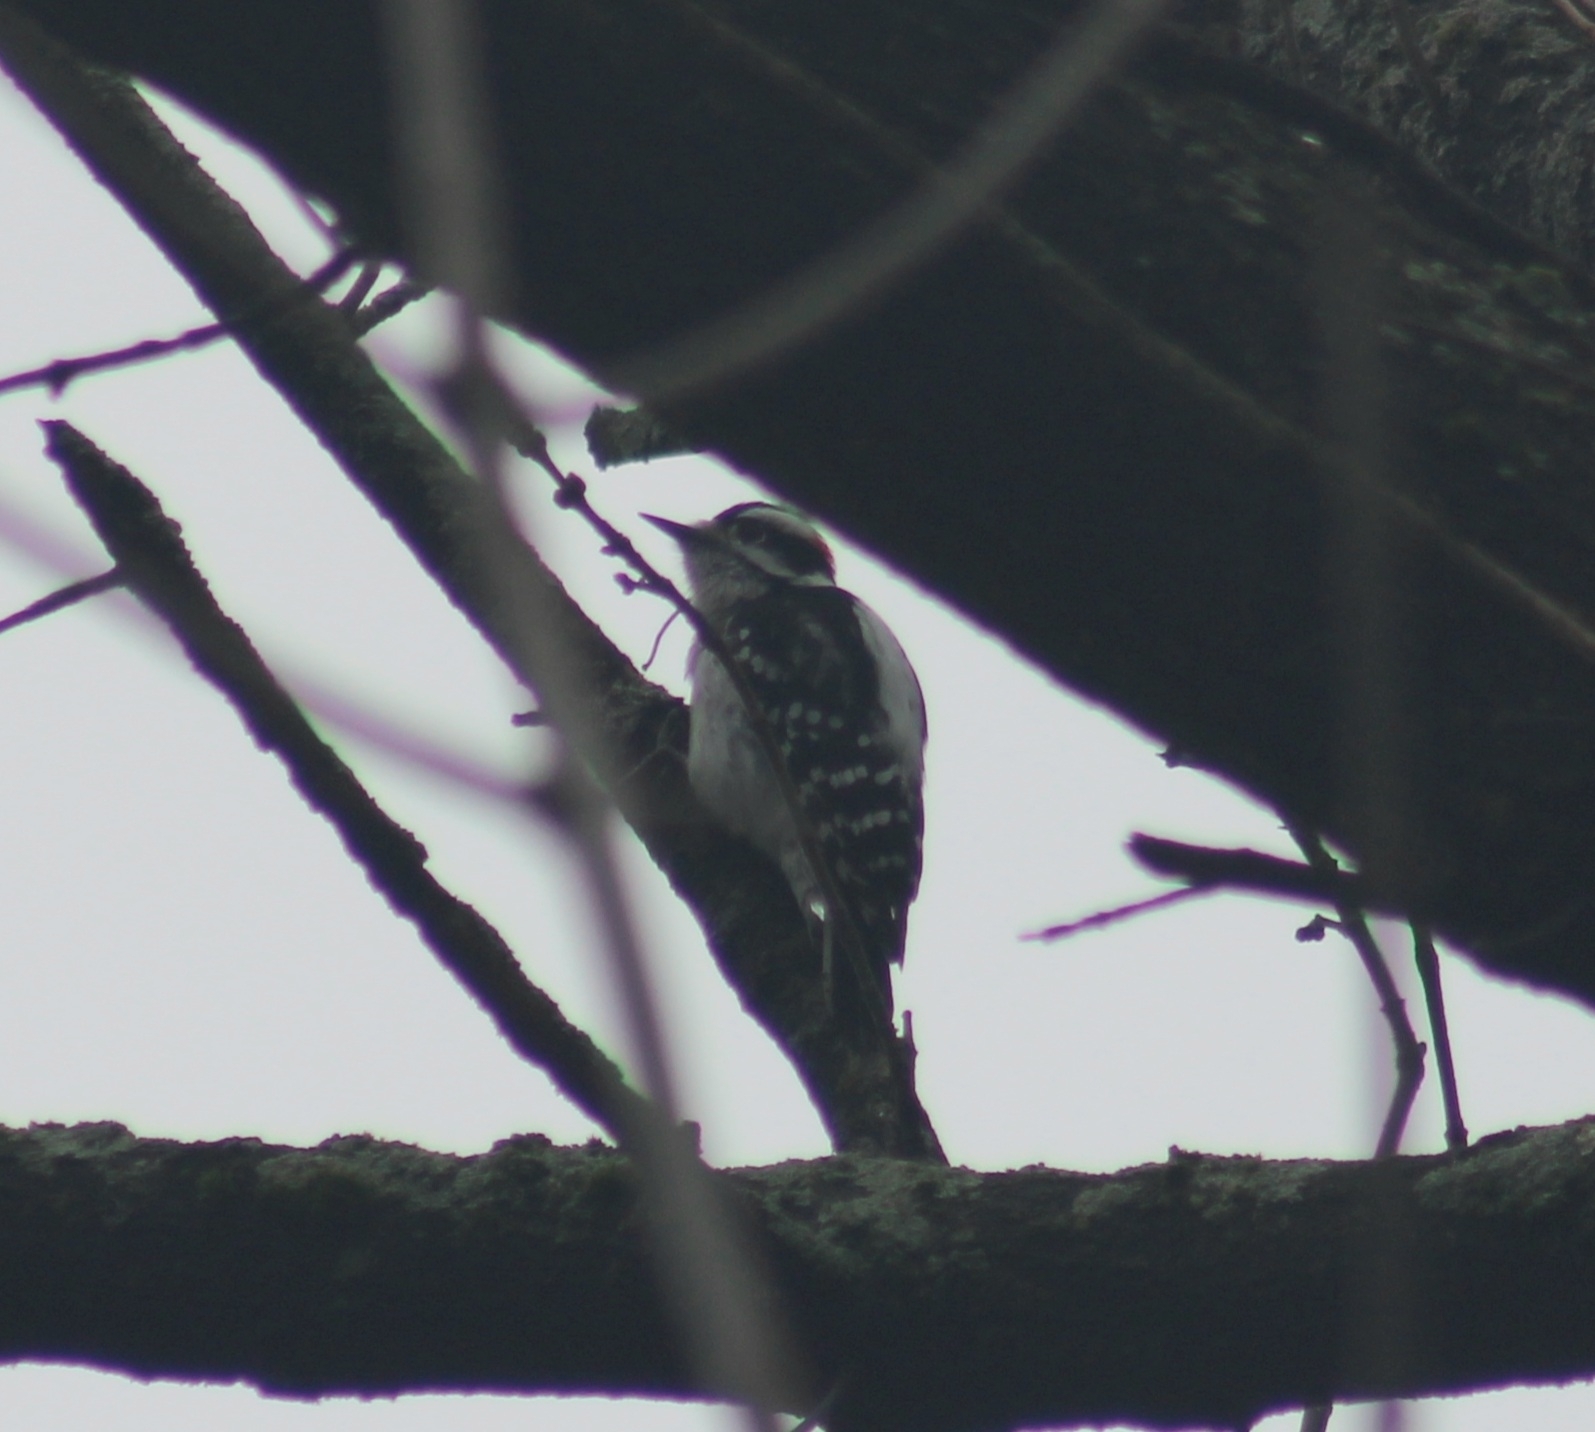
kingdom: Animalia
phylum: Chordata
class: Aves
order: Piciformes
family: Picidae
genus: Dryobates
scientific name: Dryobates pubescens
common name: Downy woodpecker
